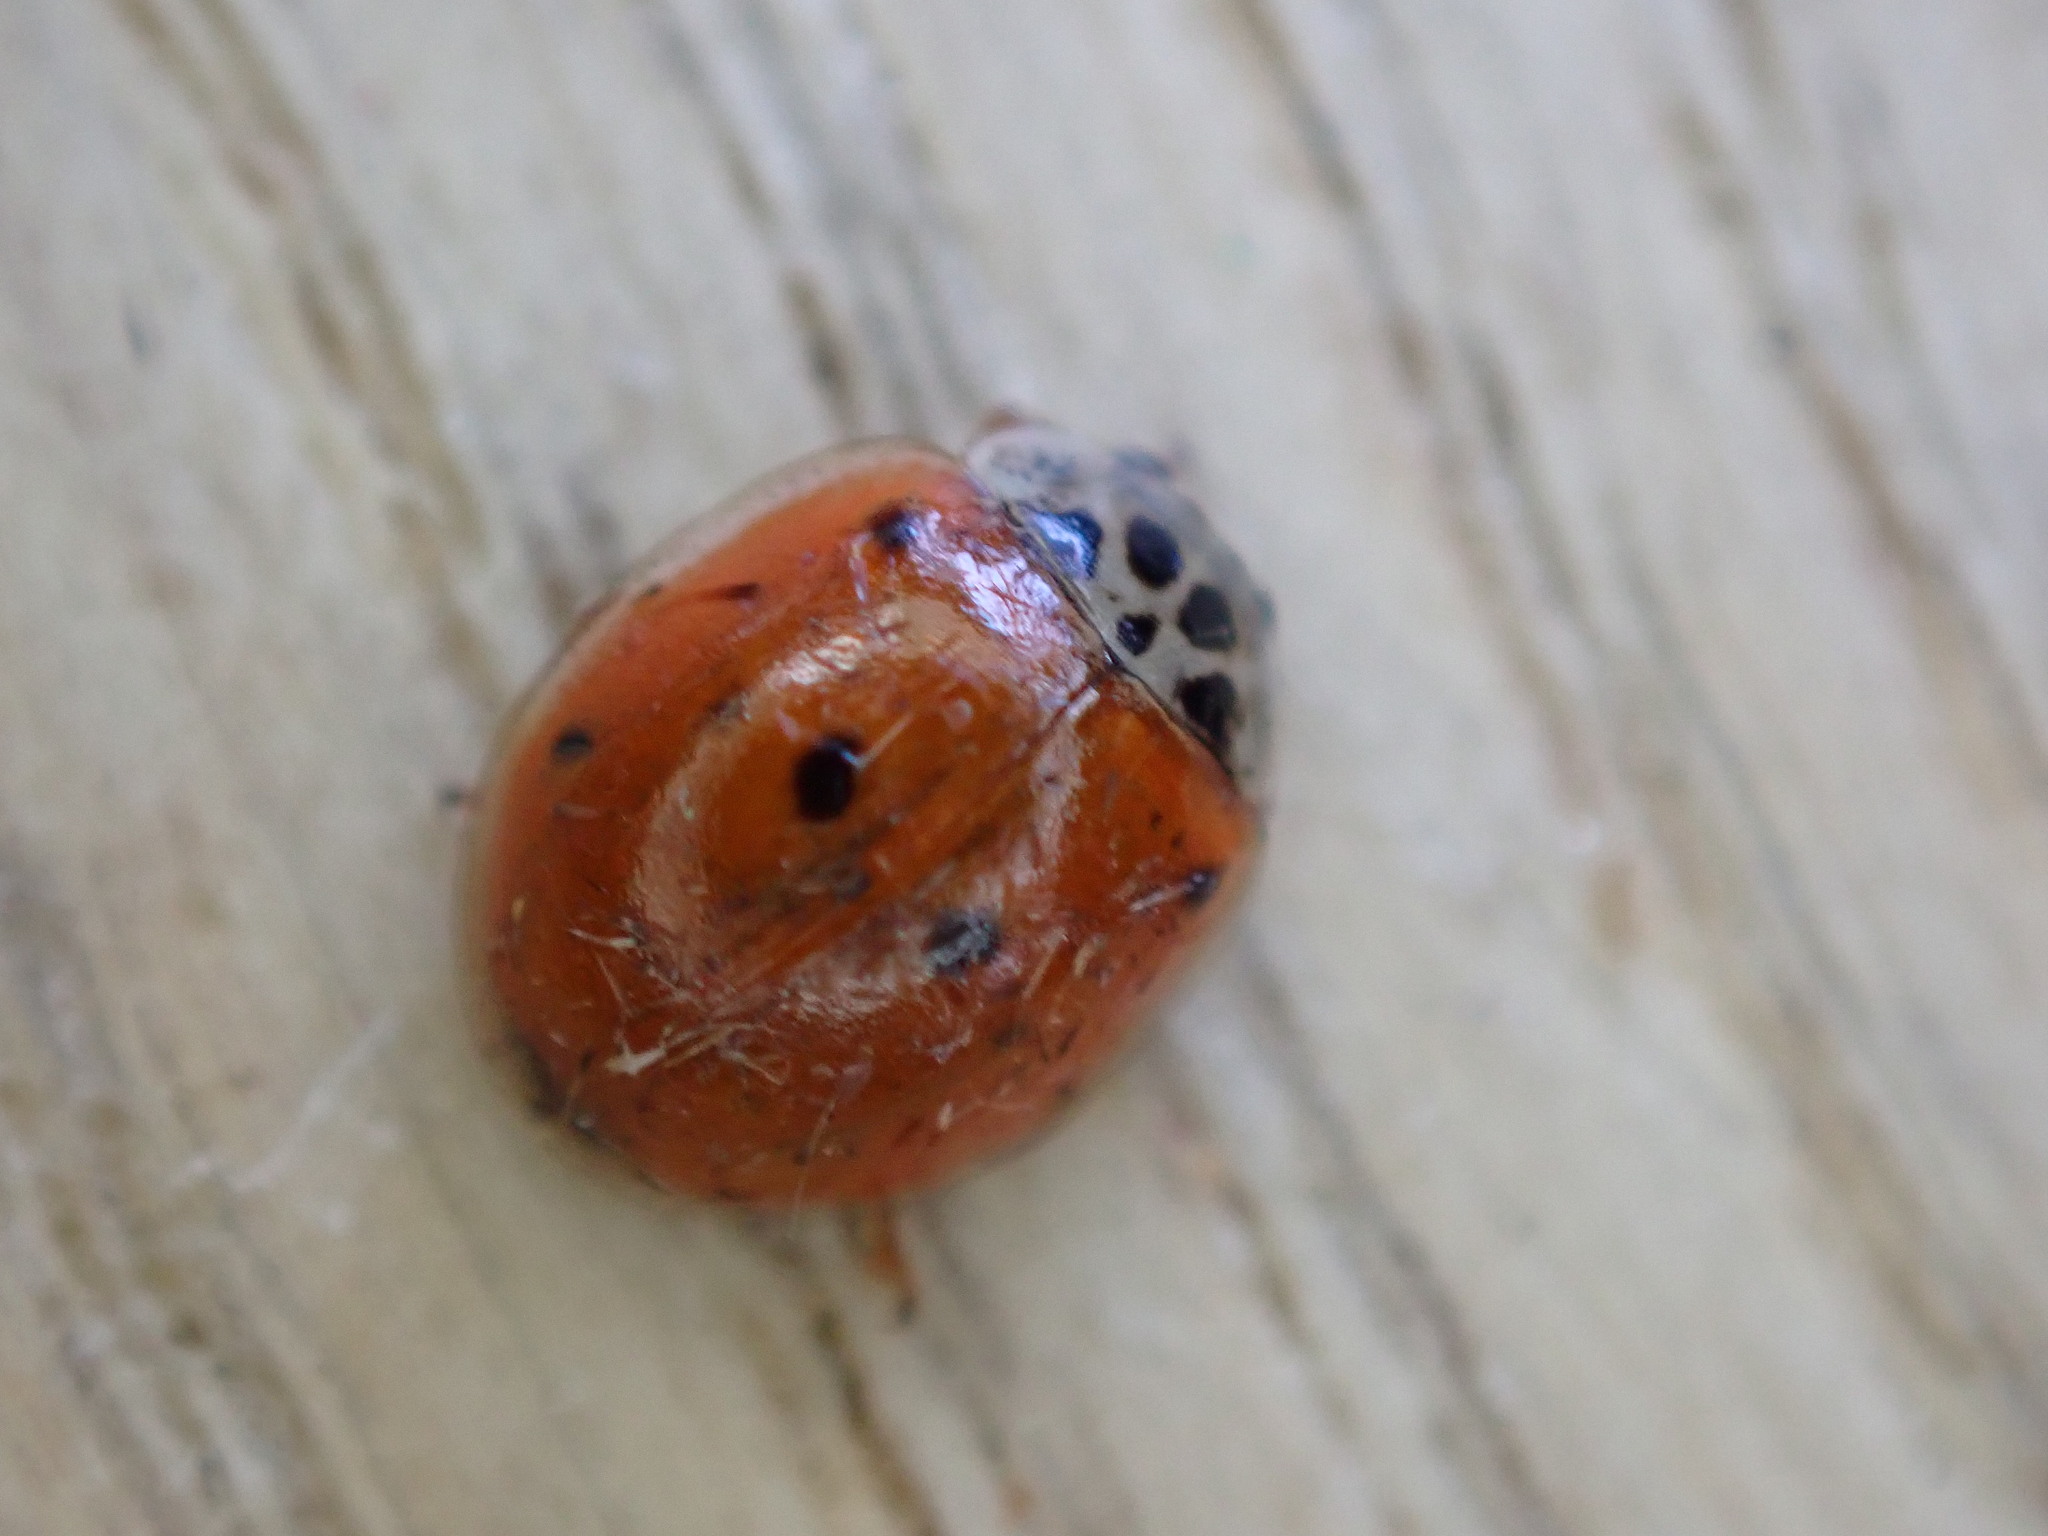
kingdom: Animalia
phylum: Arthropoda
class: Insecta
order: Coleoptera
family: Coccinellidae
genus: Adalia
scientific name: Adalia decempunctata
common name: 10-spot ladybird
